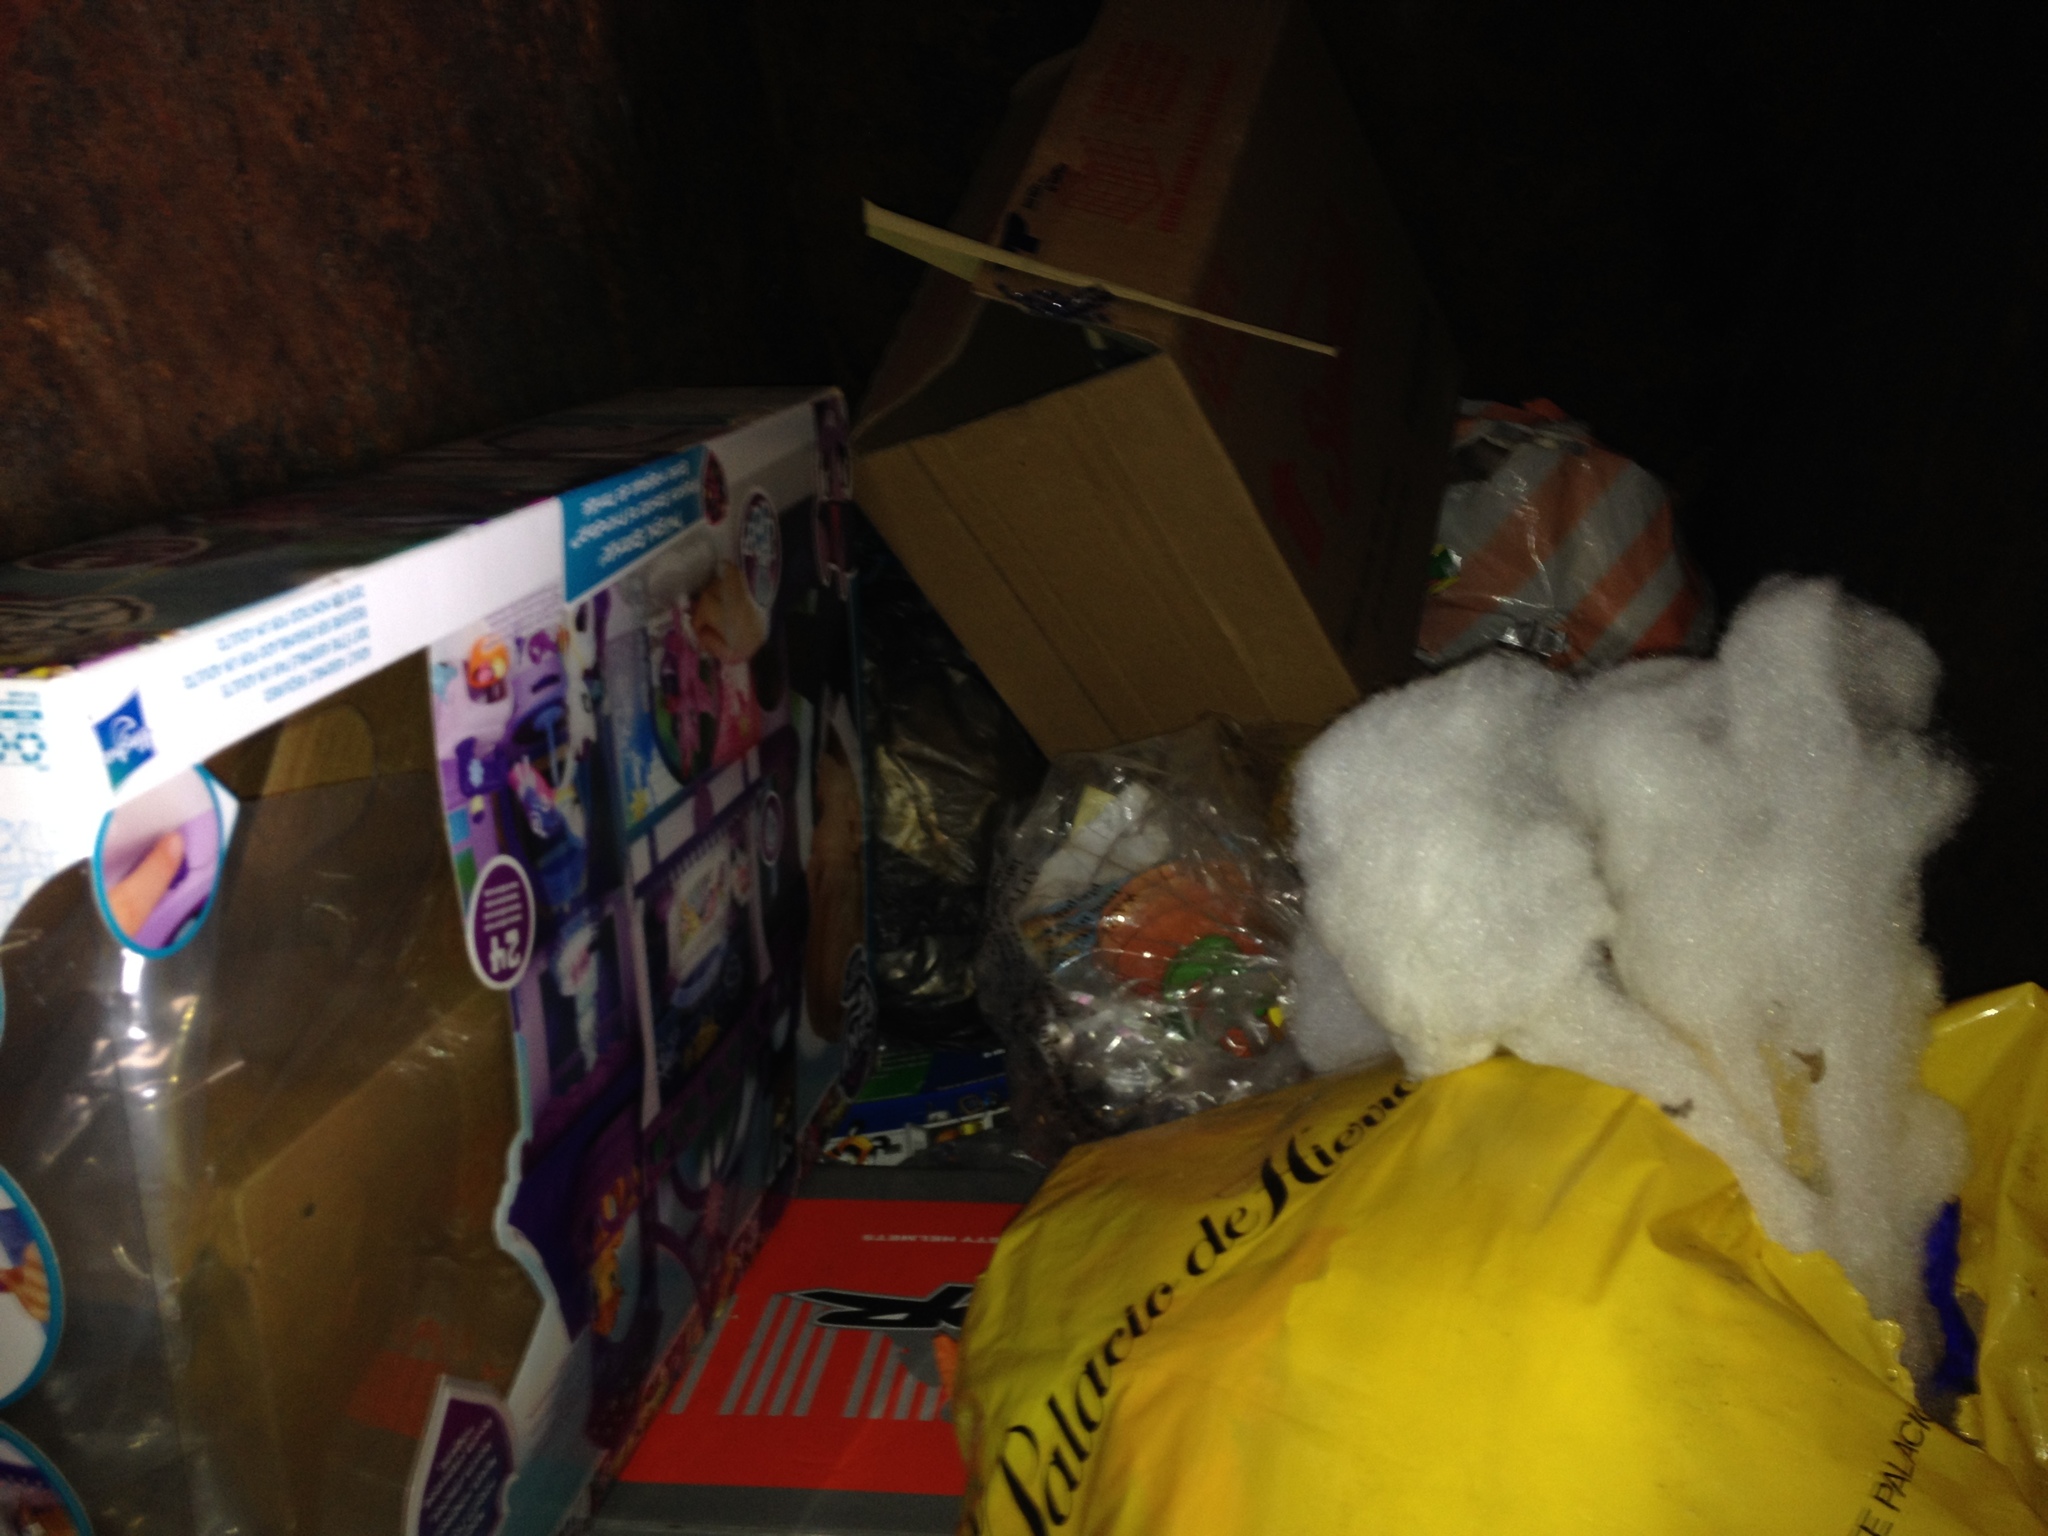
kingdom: Animalia
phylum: Chordata
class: Mammalia
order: Didelphimorphia
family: Didelphidae
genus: Didelphis
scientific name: Didelphis virginiana
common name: Virginia opossum
